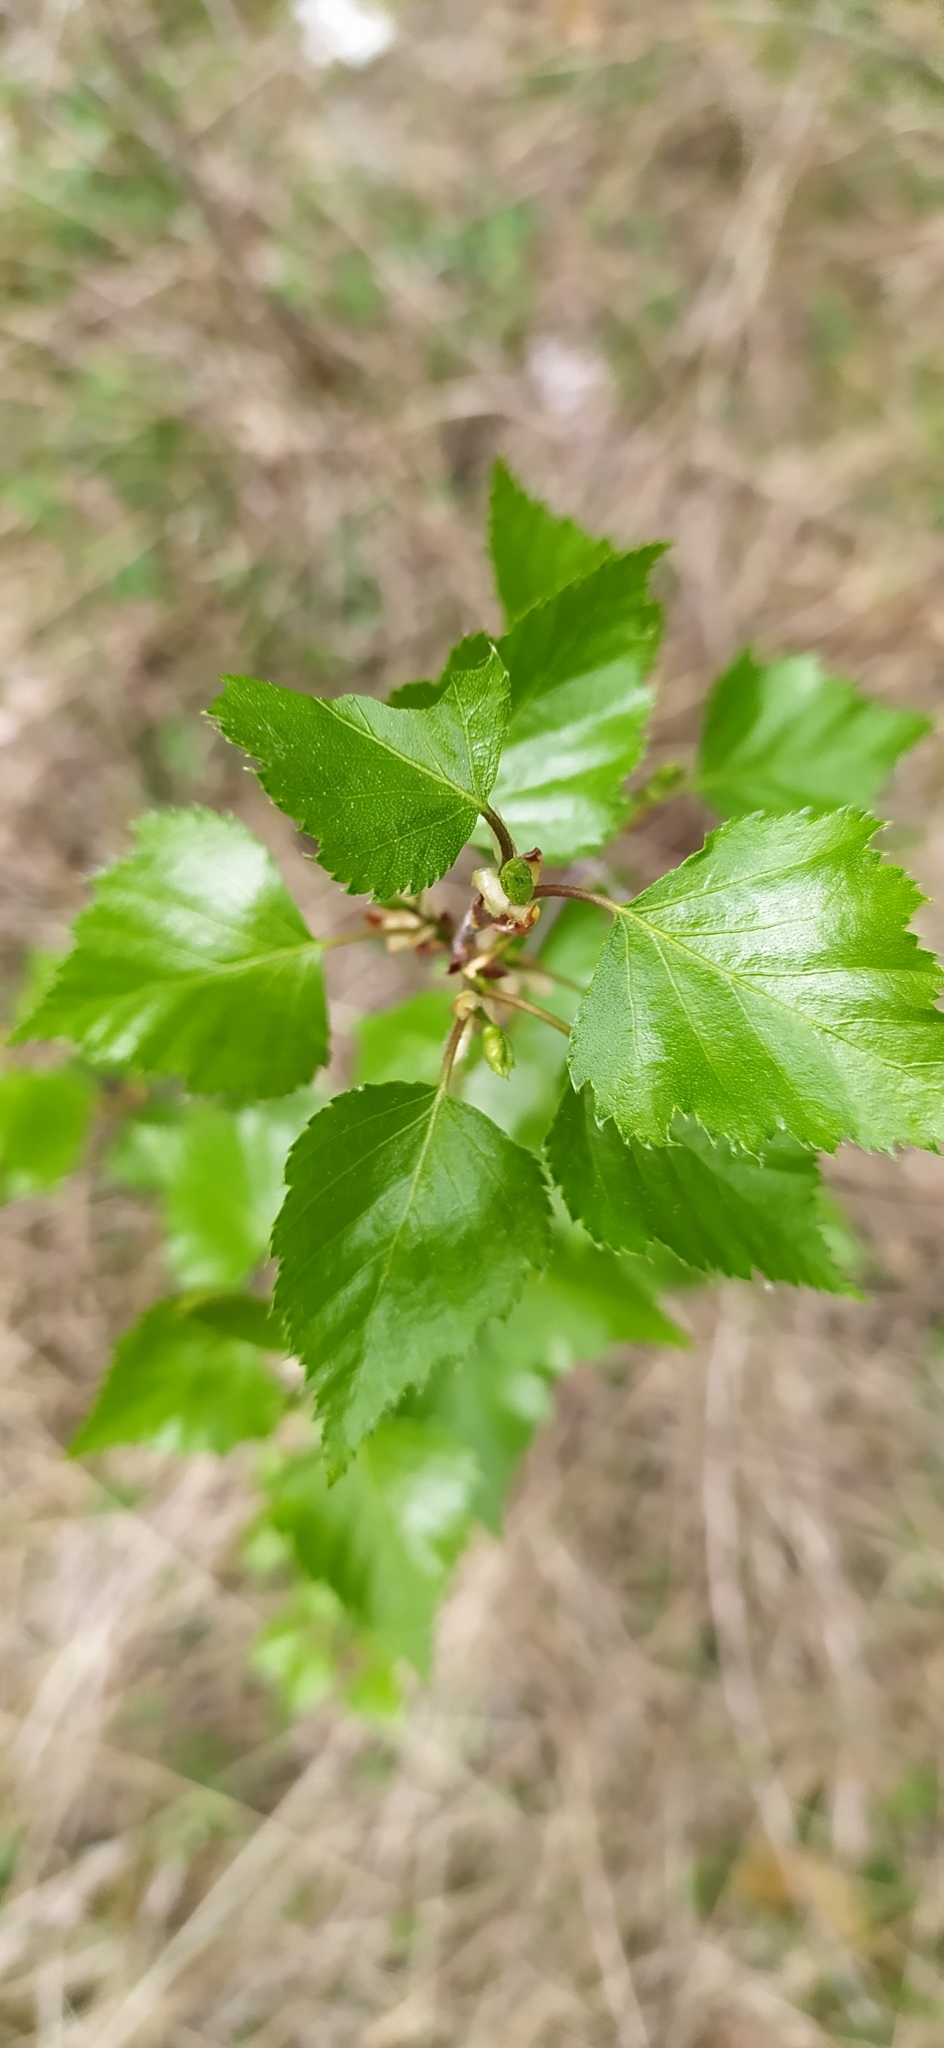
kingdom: Plantae
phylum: Tracheophyta
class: Magnoliopsida
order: Fagales
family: Betulaceae
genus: Betula
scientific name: Betula pendula
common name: Silver birch
